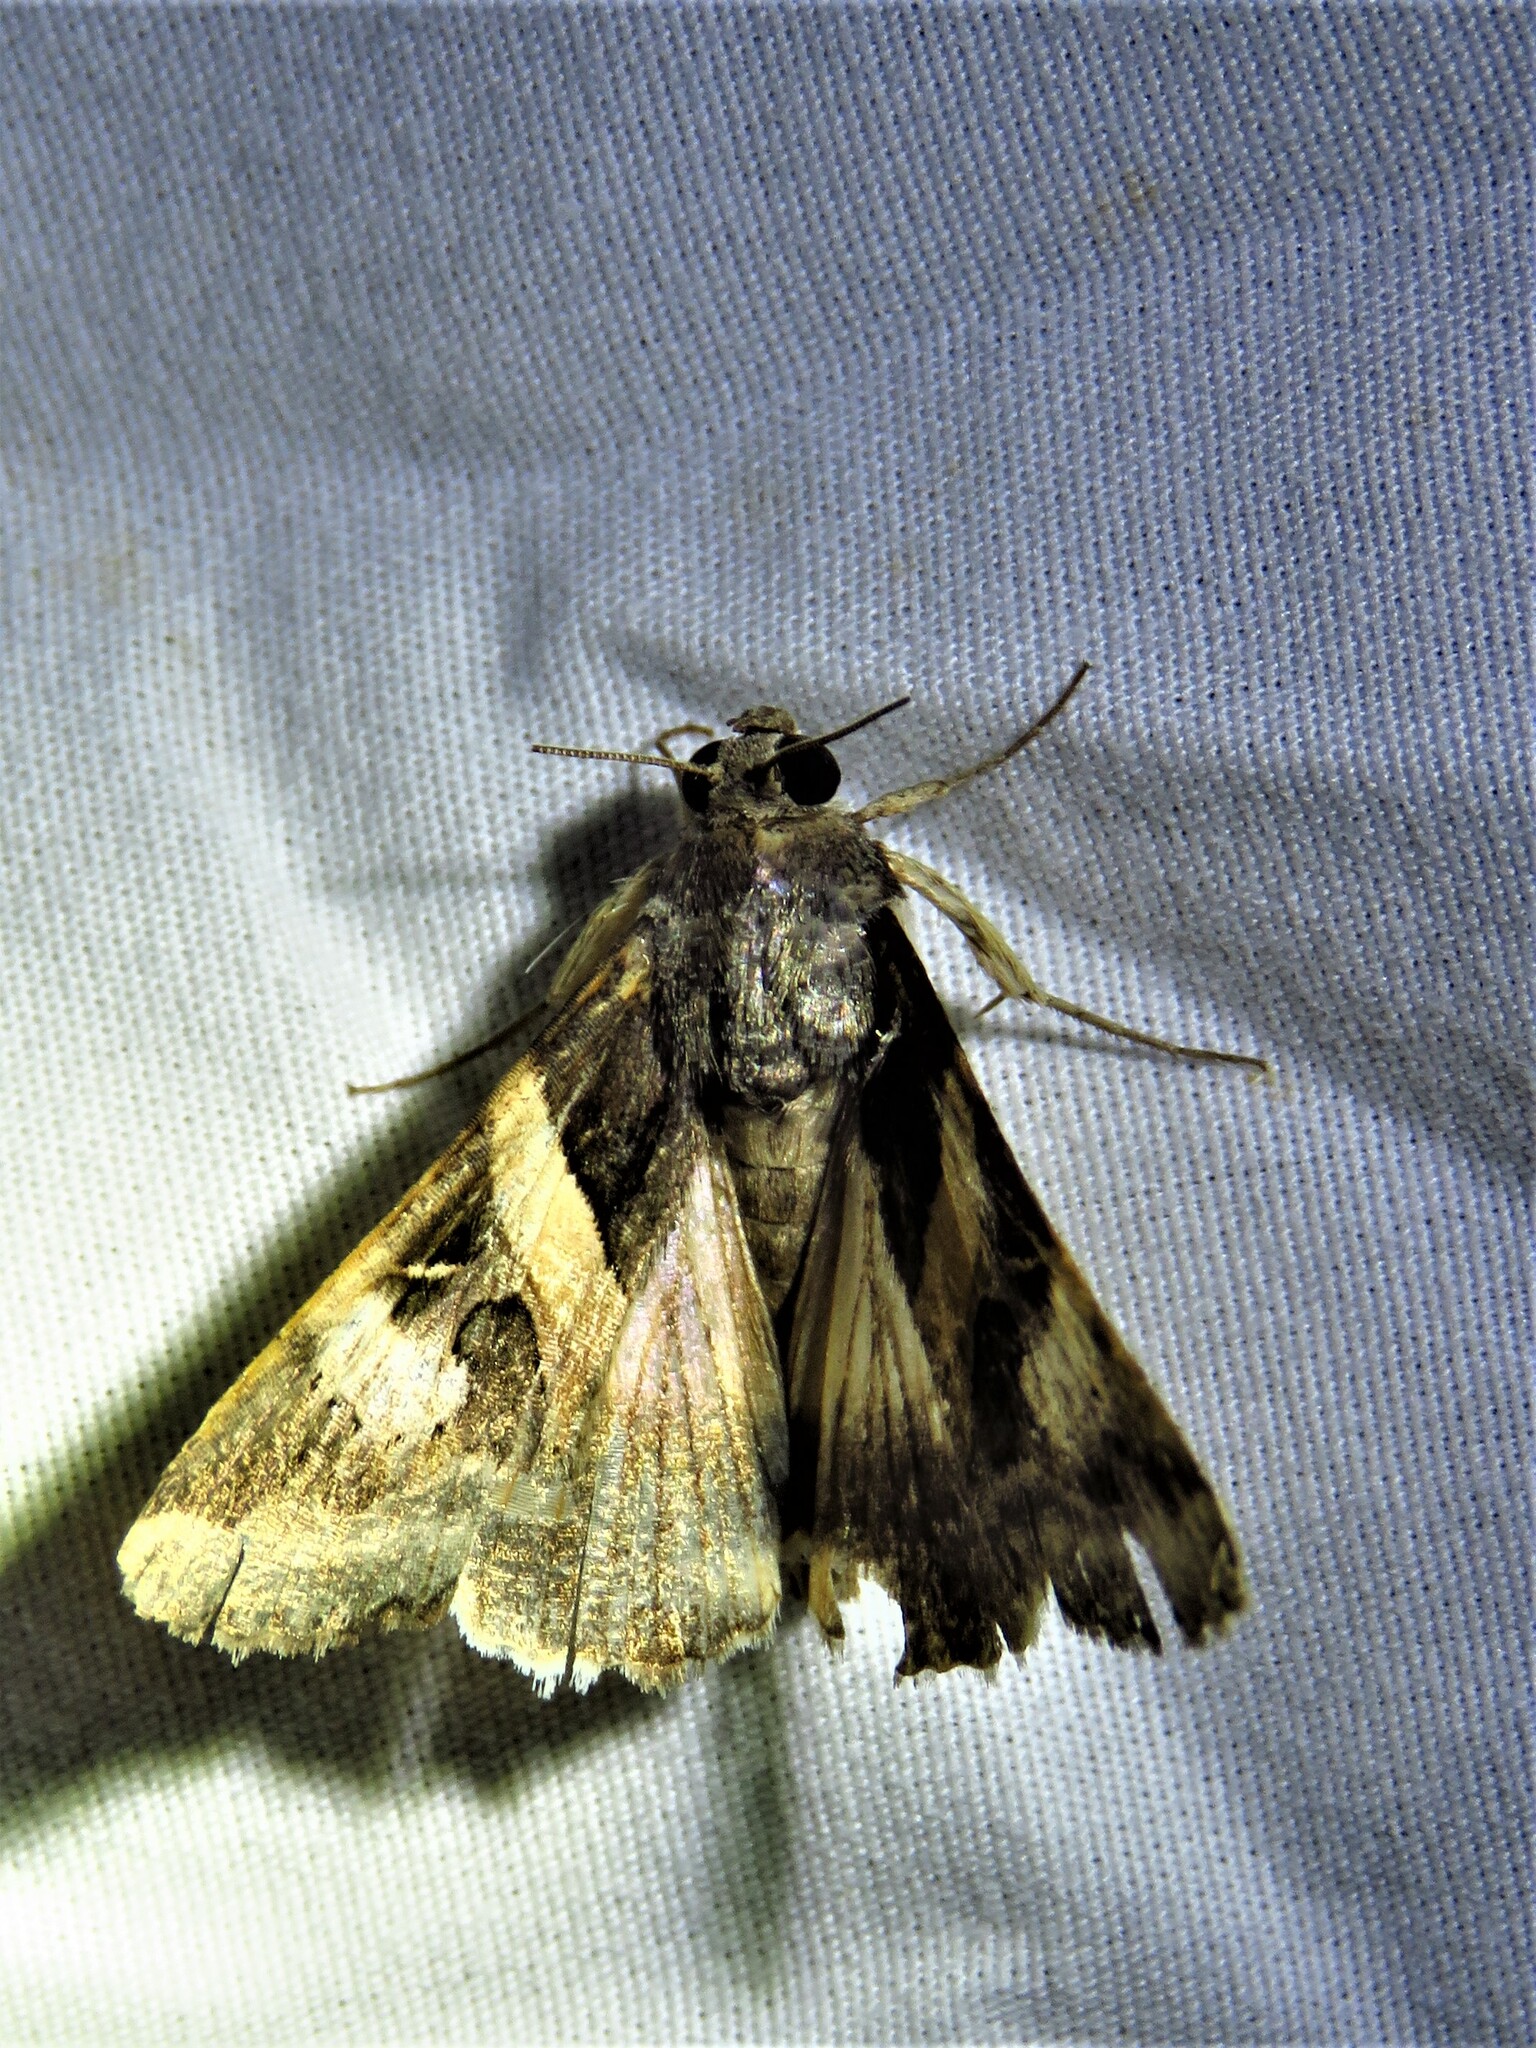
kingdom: Animalia
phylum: Arthropoda
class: Insecta
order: Lepidoptera
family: Erebidae
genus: Melipotis
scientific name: Melipotis indomita
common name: Moth
